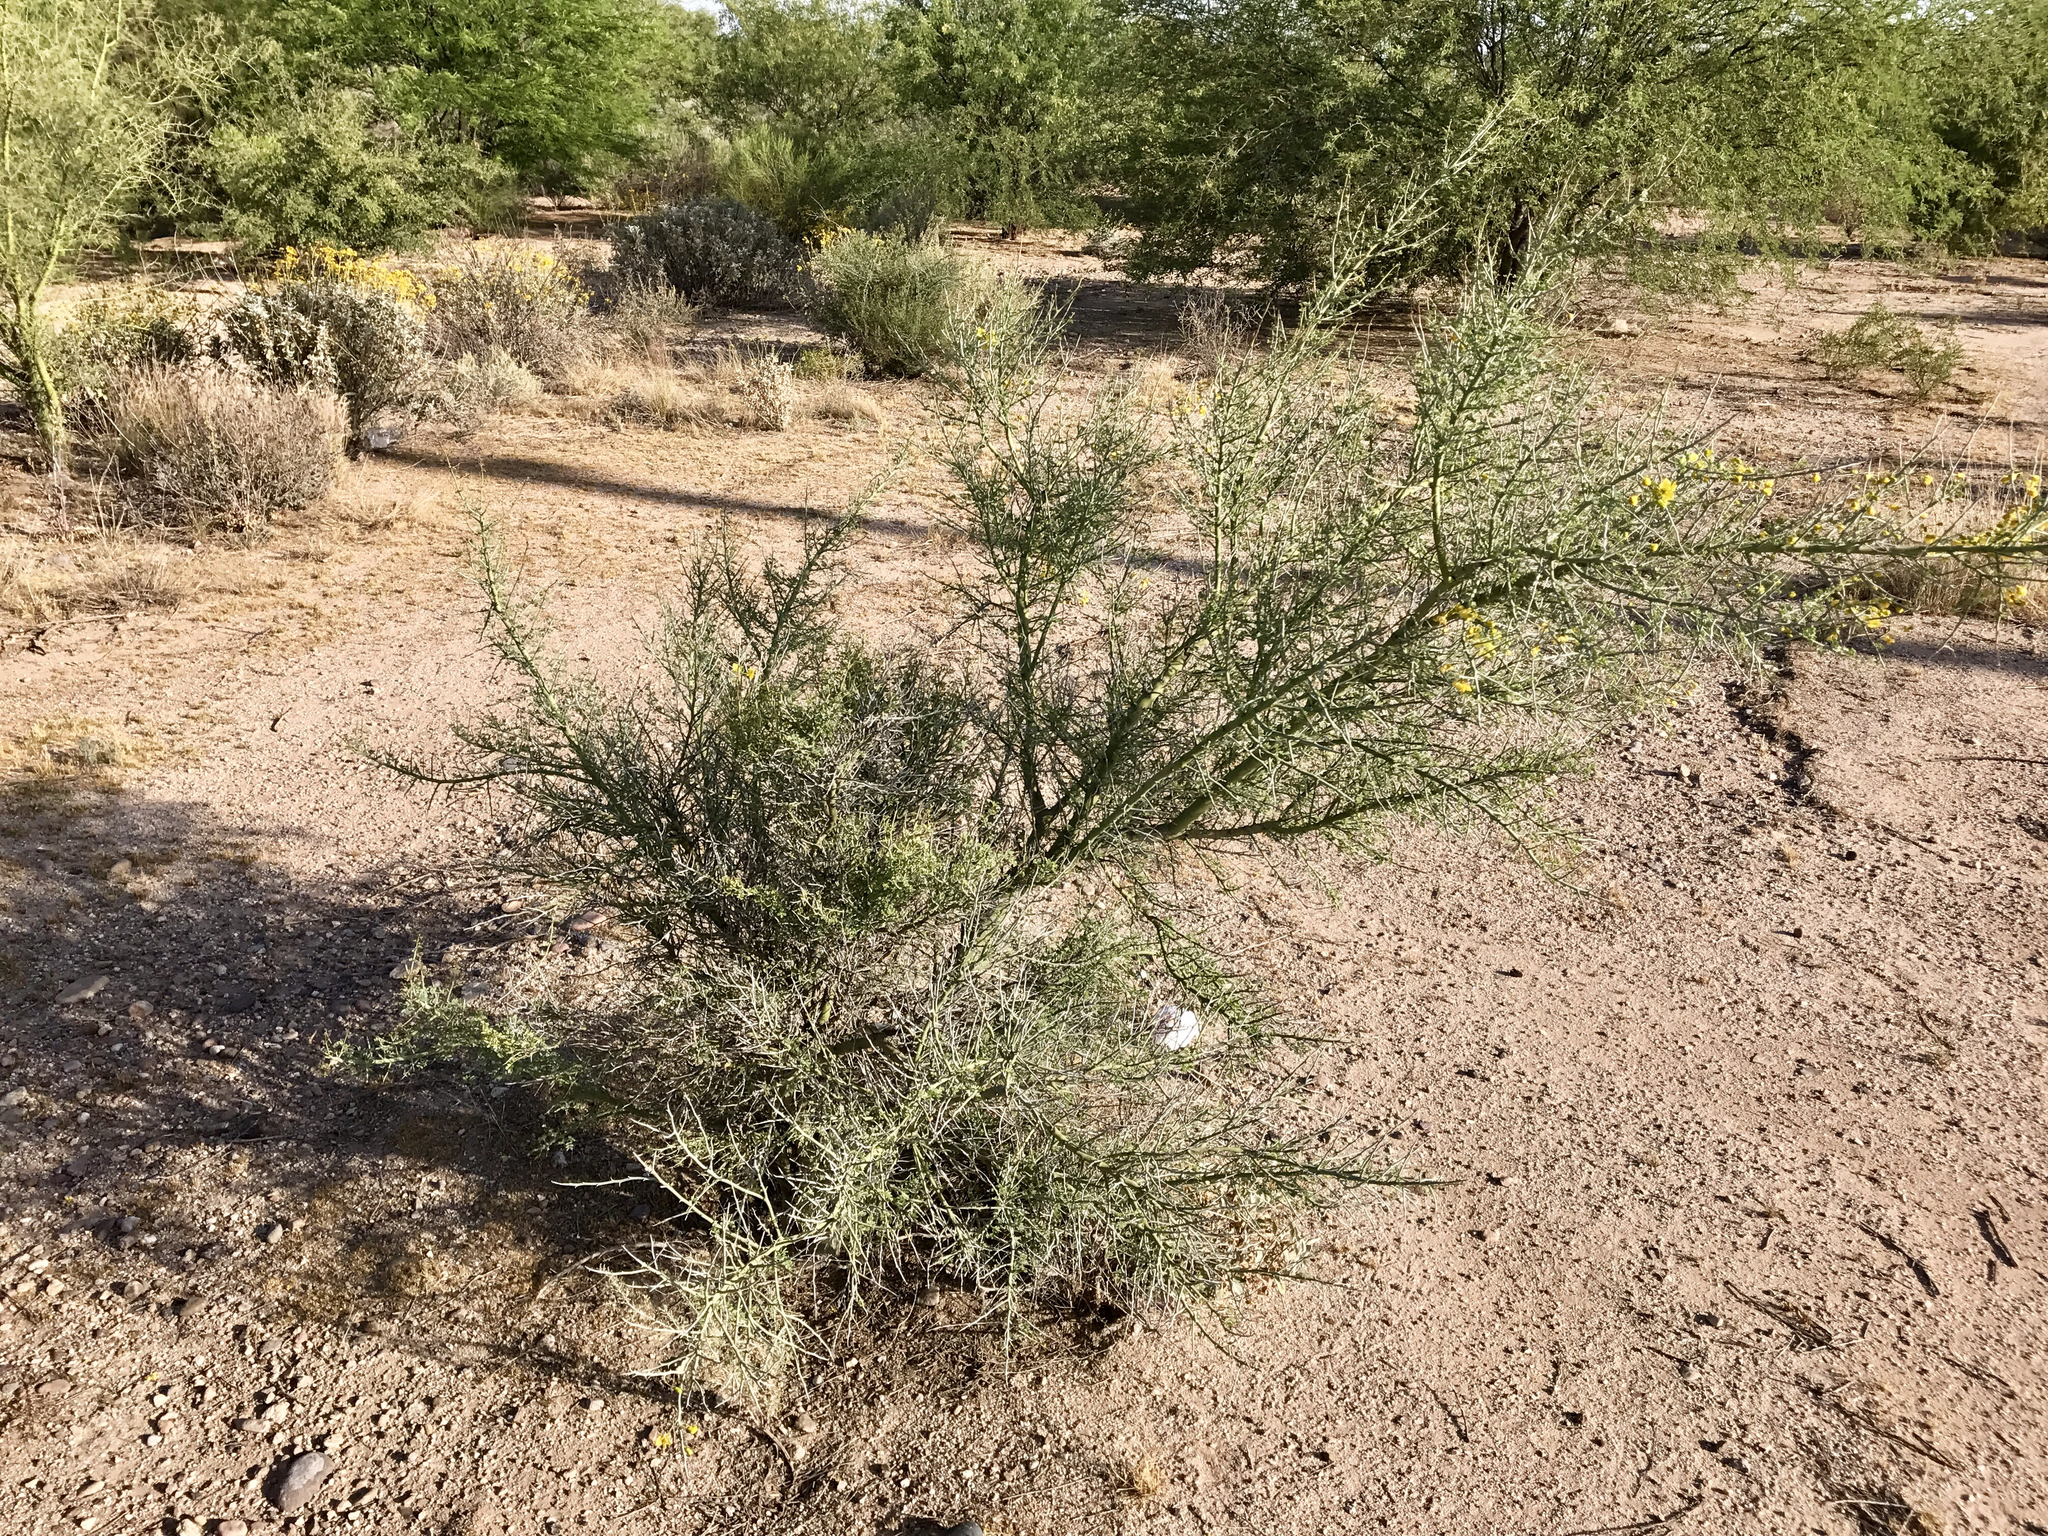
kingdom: Plantae
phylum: Tracheophyta
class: Magnoliopsida
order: Fabales
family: Fabaceae
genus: Parkinsonia
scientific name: Parkinsonia florida
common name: Blue paloverde
